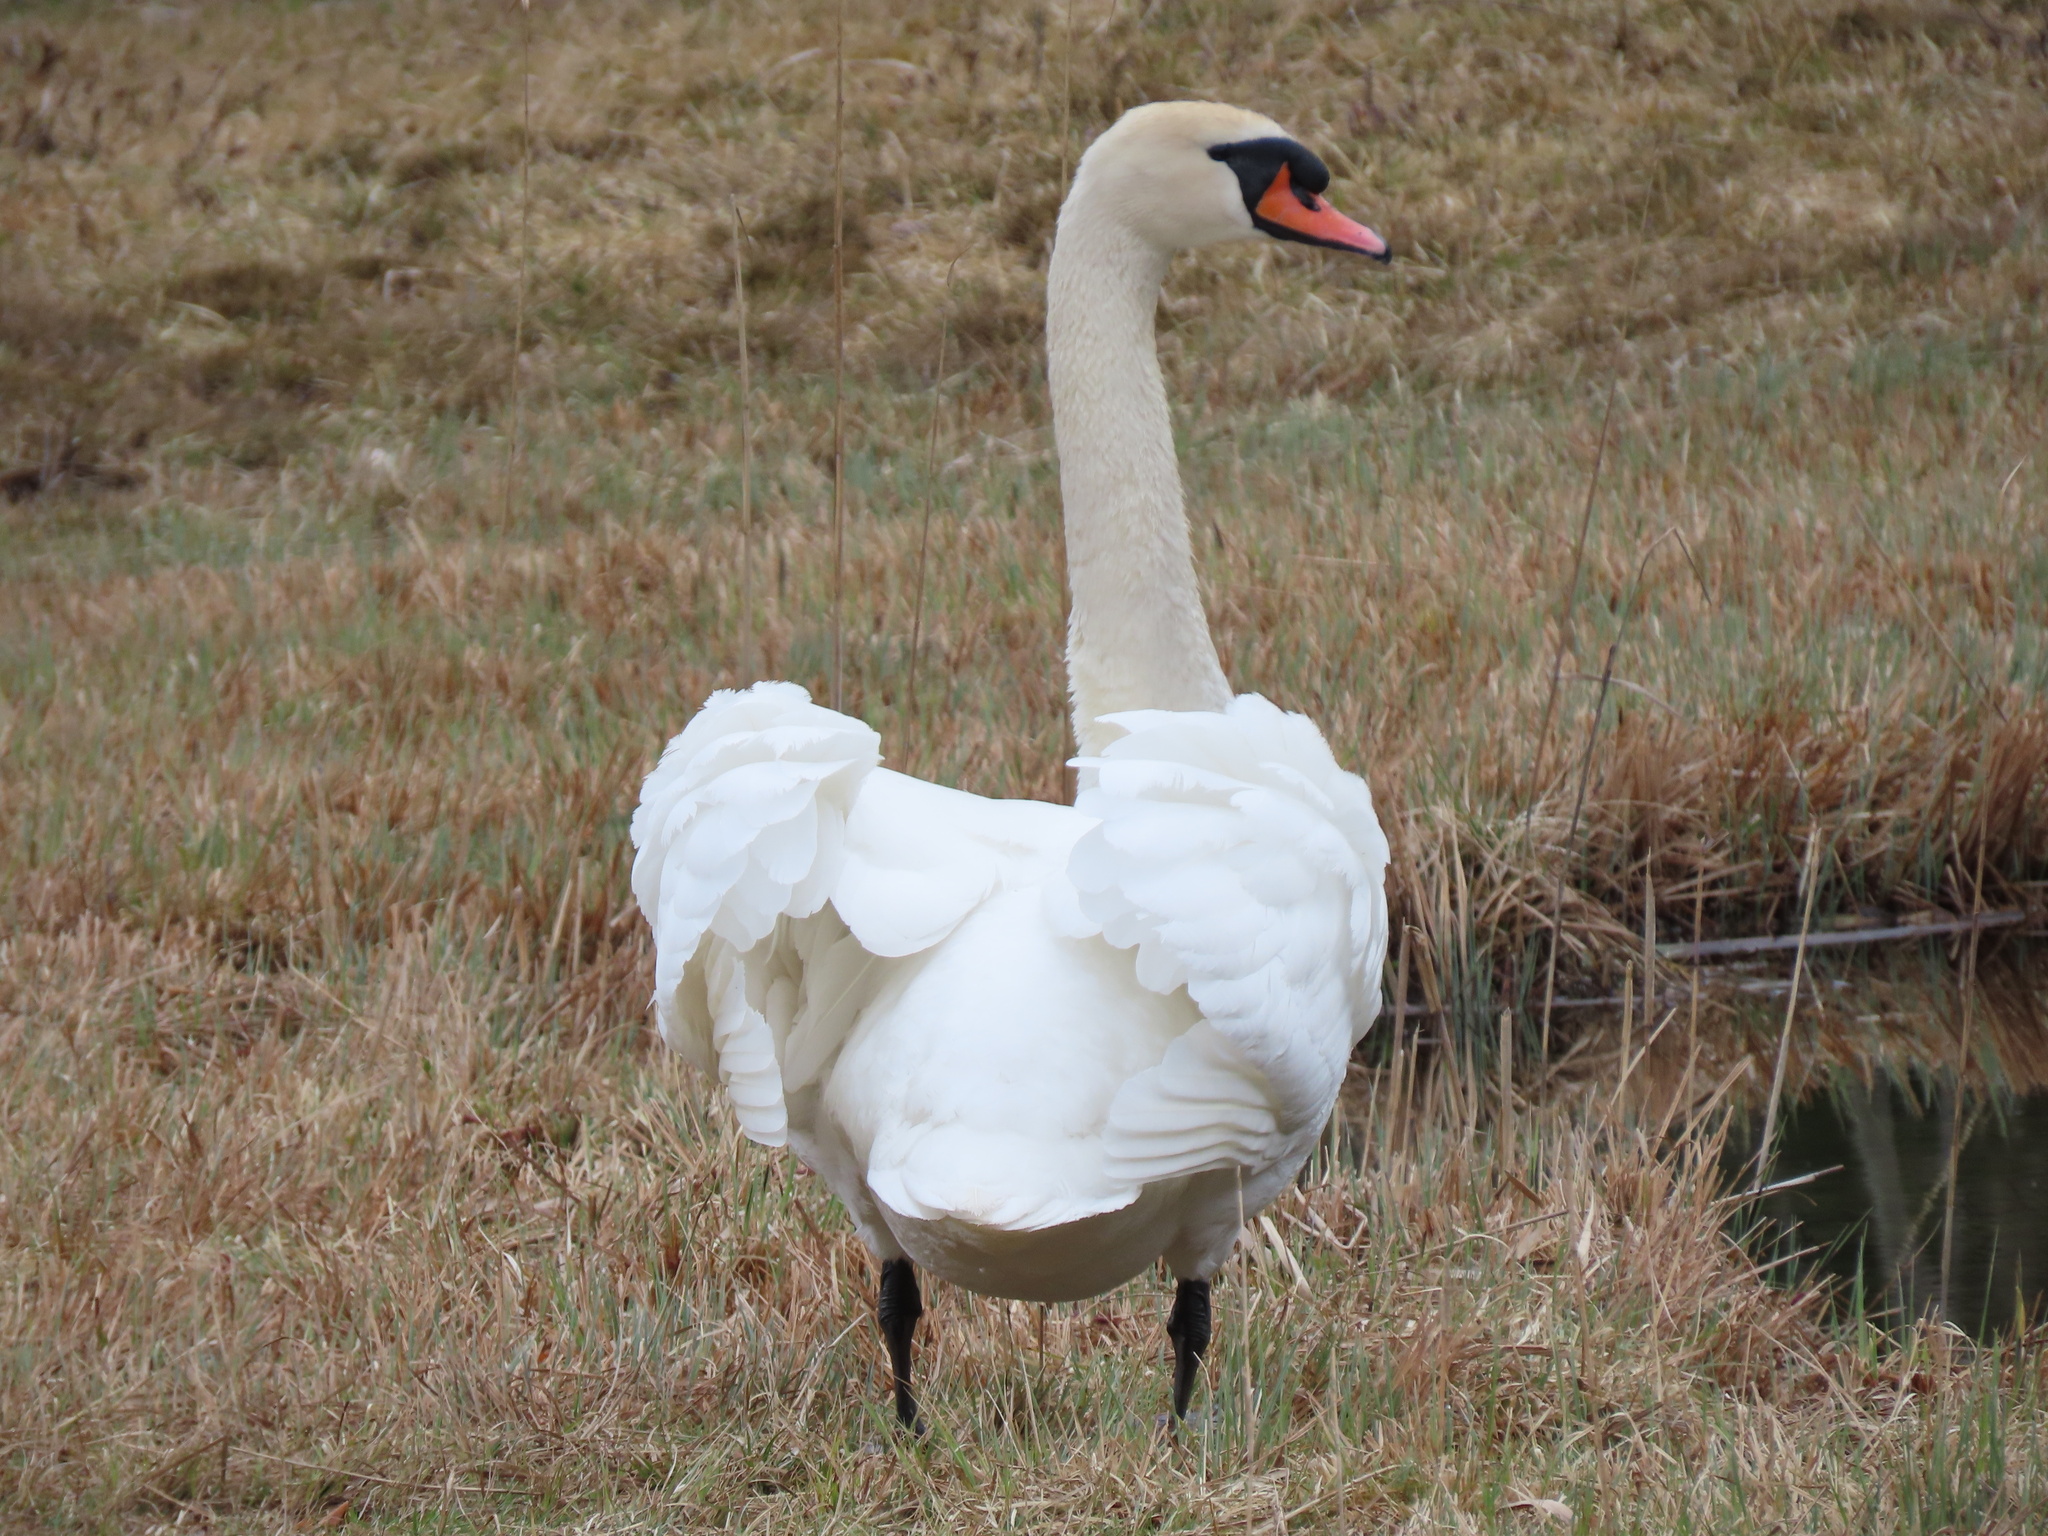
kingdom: Animalia
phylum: Chordata
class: Aves
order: Anseriformes
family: Anatidae
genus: Cygnus
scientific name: Cygnus olor
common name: Mute swan
